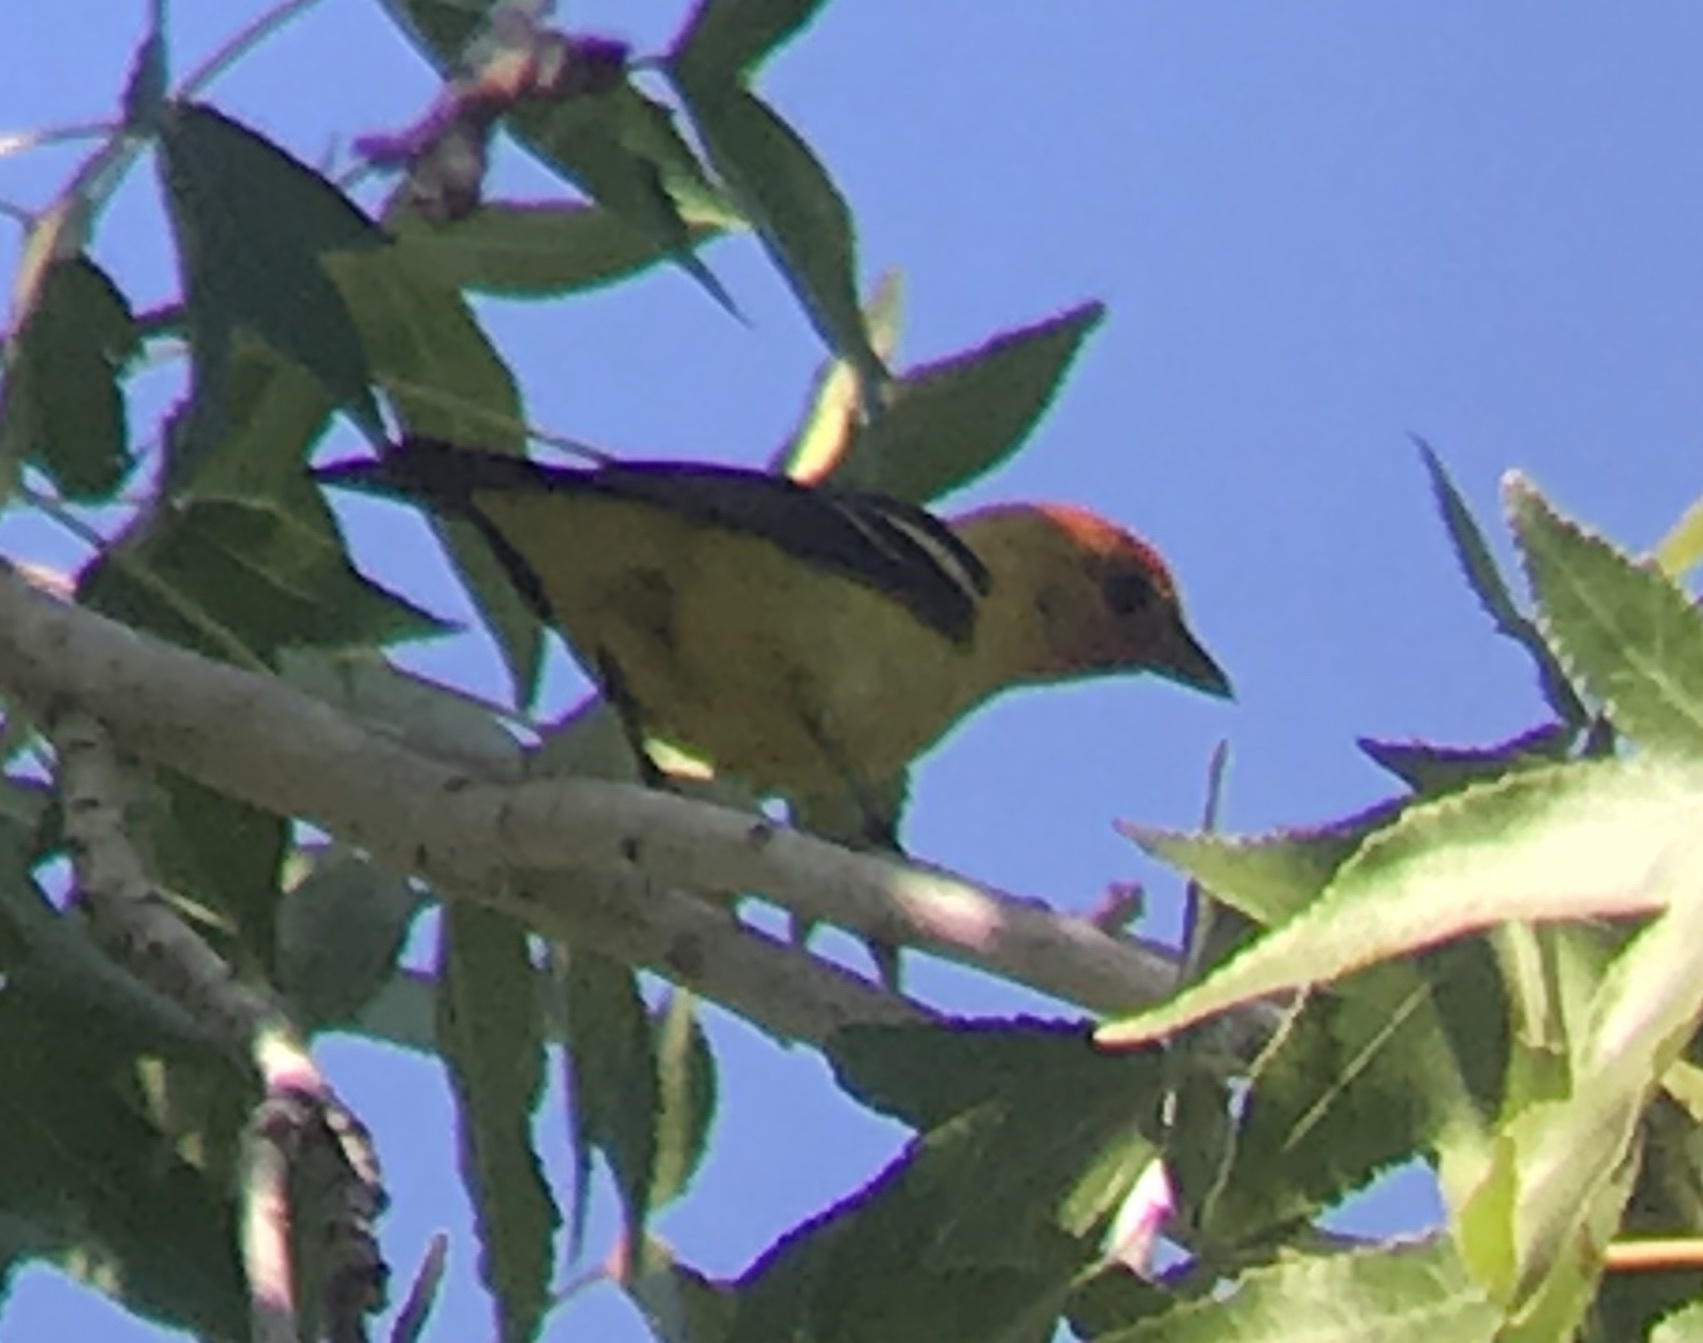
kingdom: Animalia
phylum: Chordata
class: Aves
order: Passeriformes
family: Cardinalidae
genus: Piranga
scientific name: Piranga ludoviciana
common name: Western tanager
